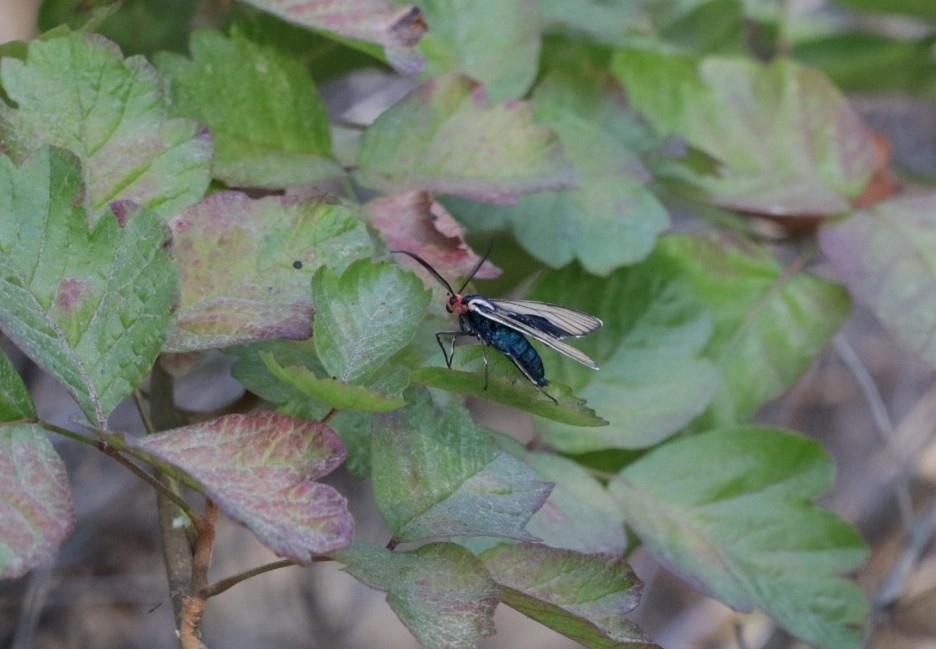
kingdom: Animalia
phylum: Arthropoda
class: Insecta
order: Lepidoptera
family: Erebidae
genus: Ctenucha
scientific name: Ctenucha brunnea
